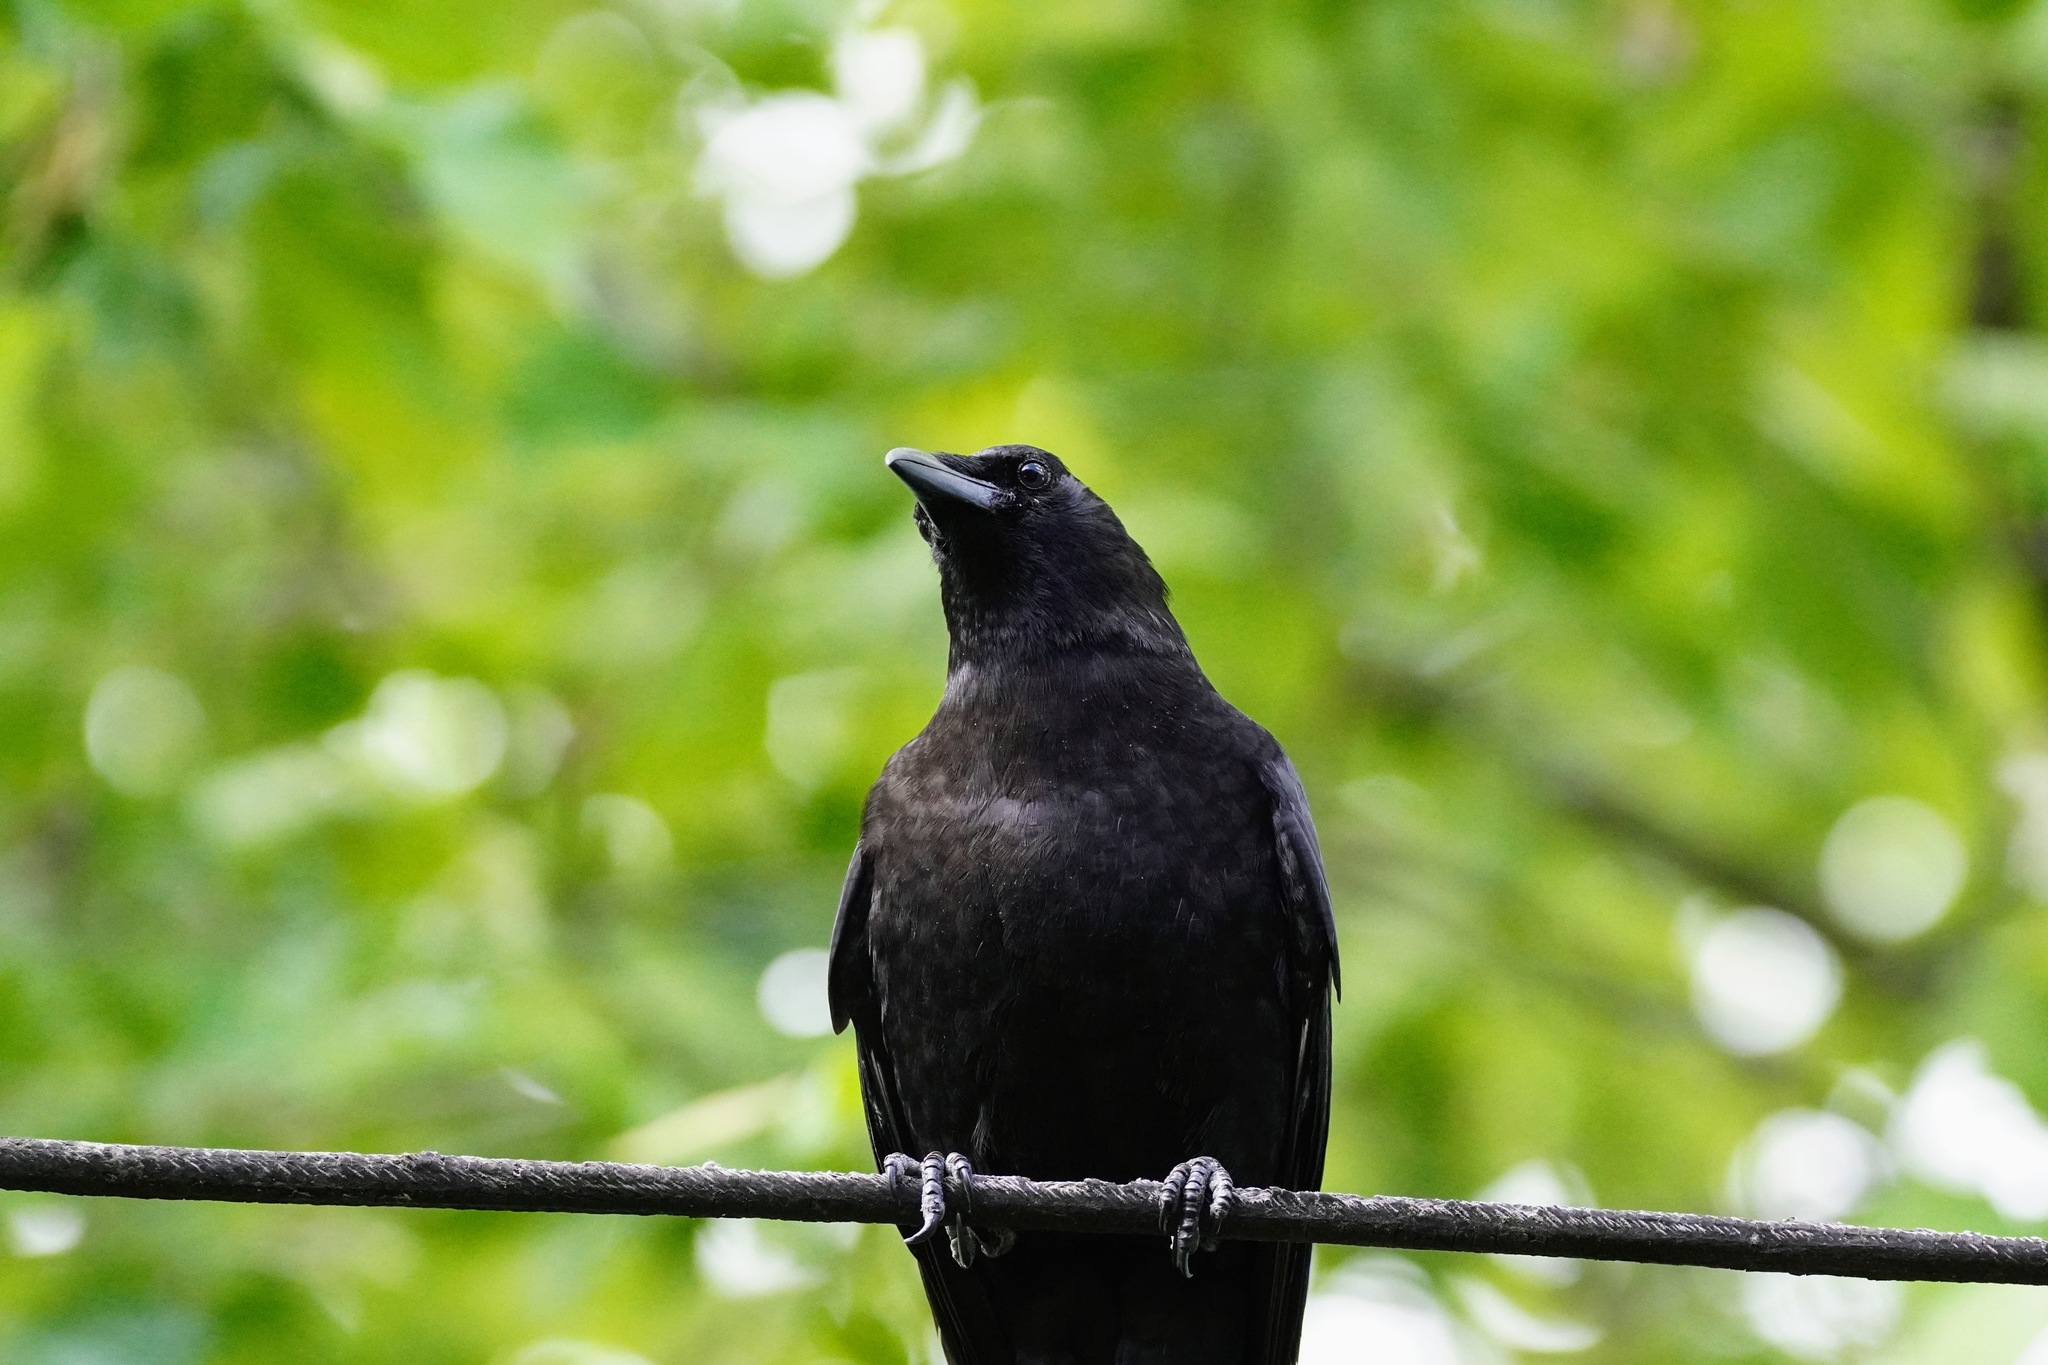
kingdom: Animalia
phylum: Chordata
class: Aves
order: Passeriformes
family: Corvidae
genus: Corvus
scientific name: Corvus brachyrhynchos
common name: American crow
